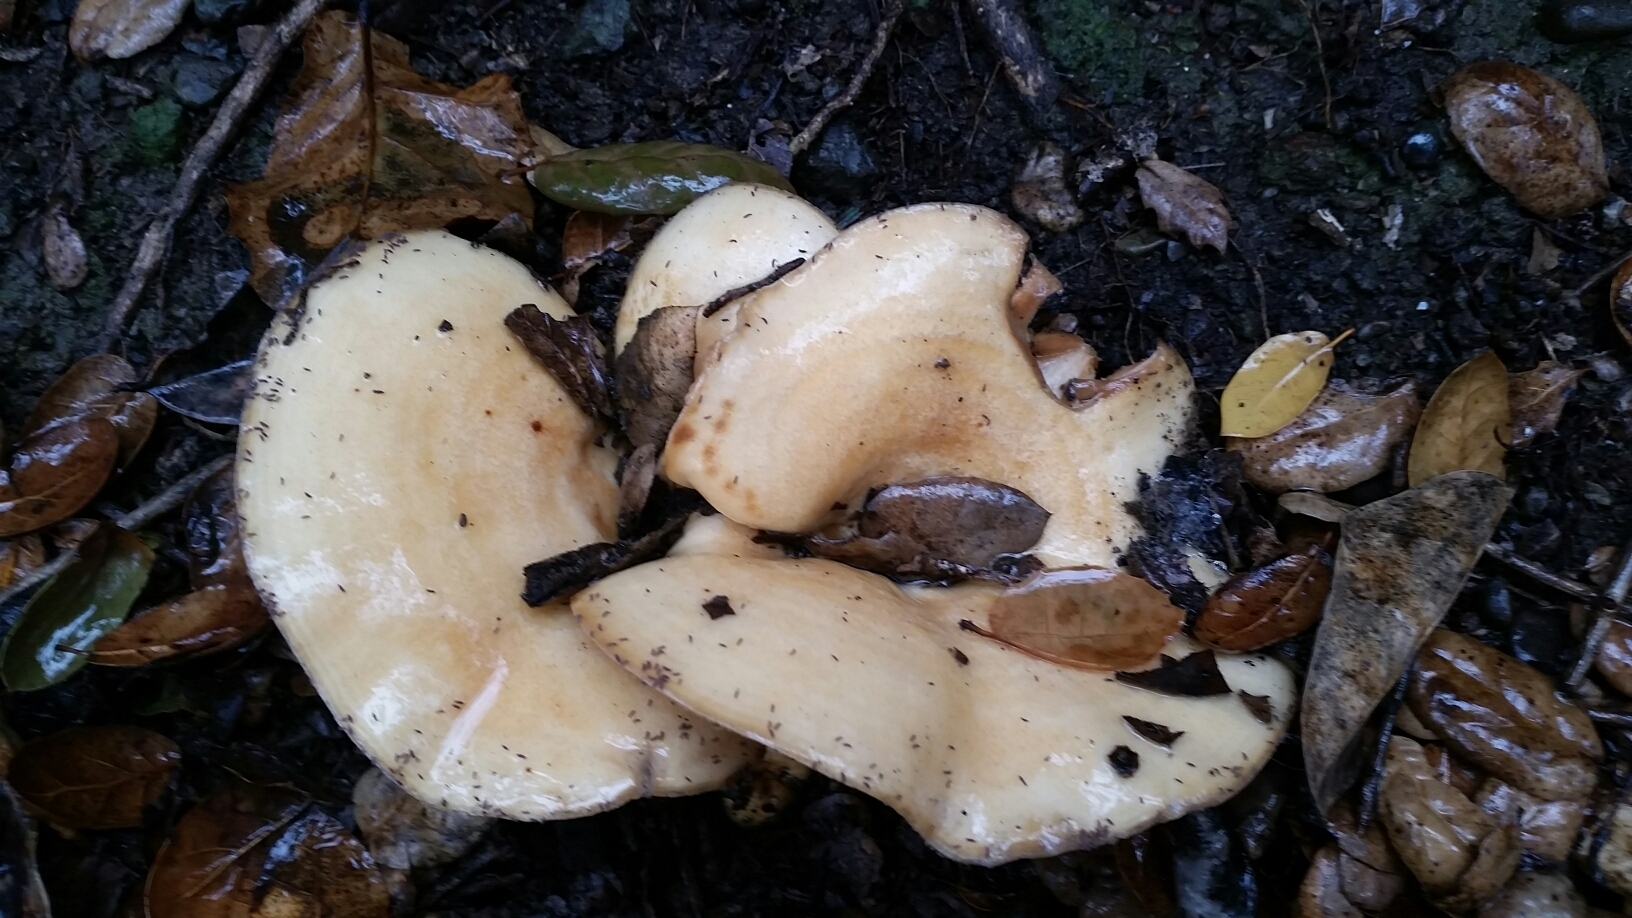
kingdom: Fungi
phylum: Basidiomycota
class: Agaricomycetes
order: Russulales
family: Russulaceae
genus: Lactarius
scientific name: Lactarius alnicola
